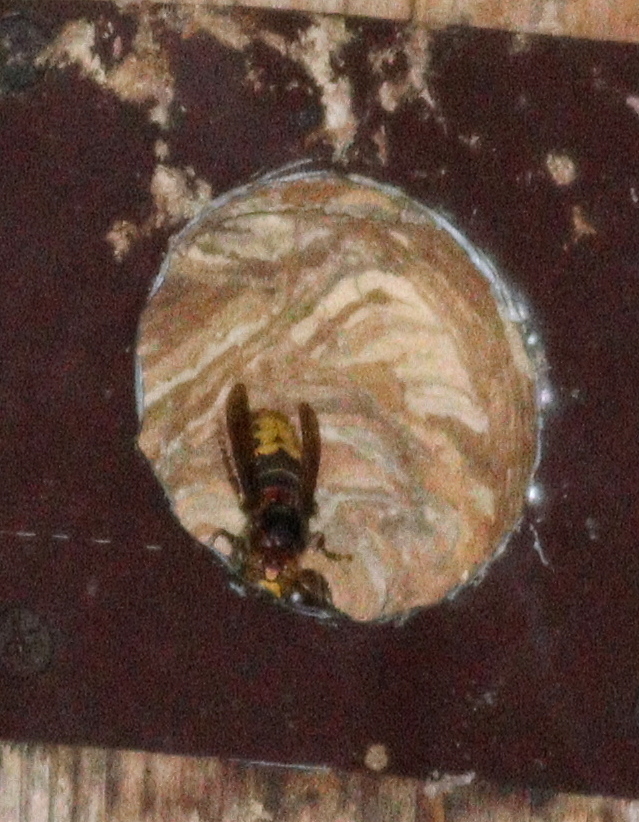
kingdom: Animalia
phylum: Arthropoda
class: Insecta
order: Hymenoptera
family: Vespidae
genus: Vespa
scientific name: Vespa crabro
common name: Hornet
